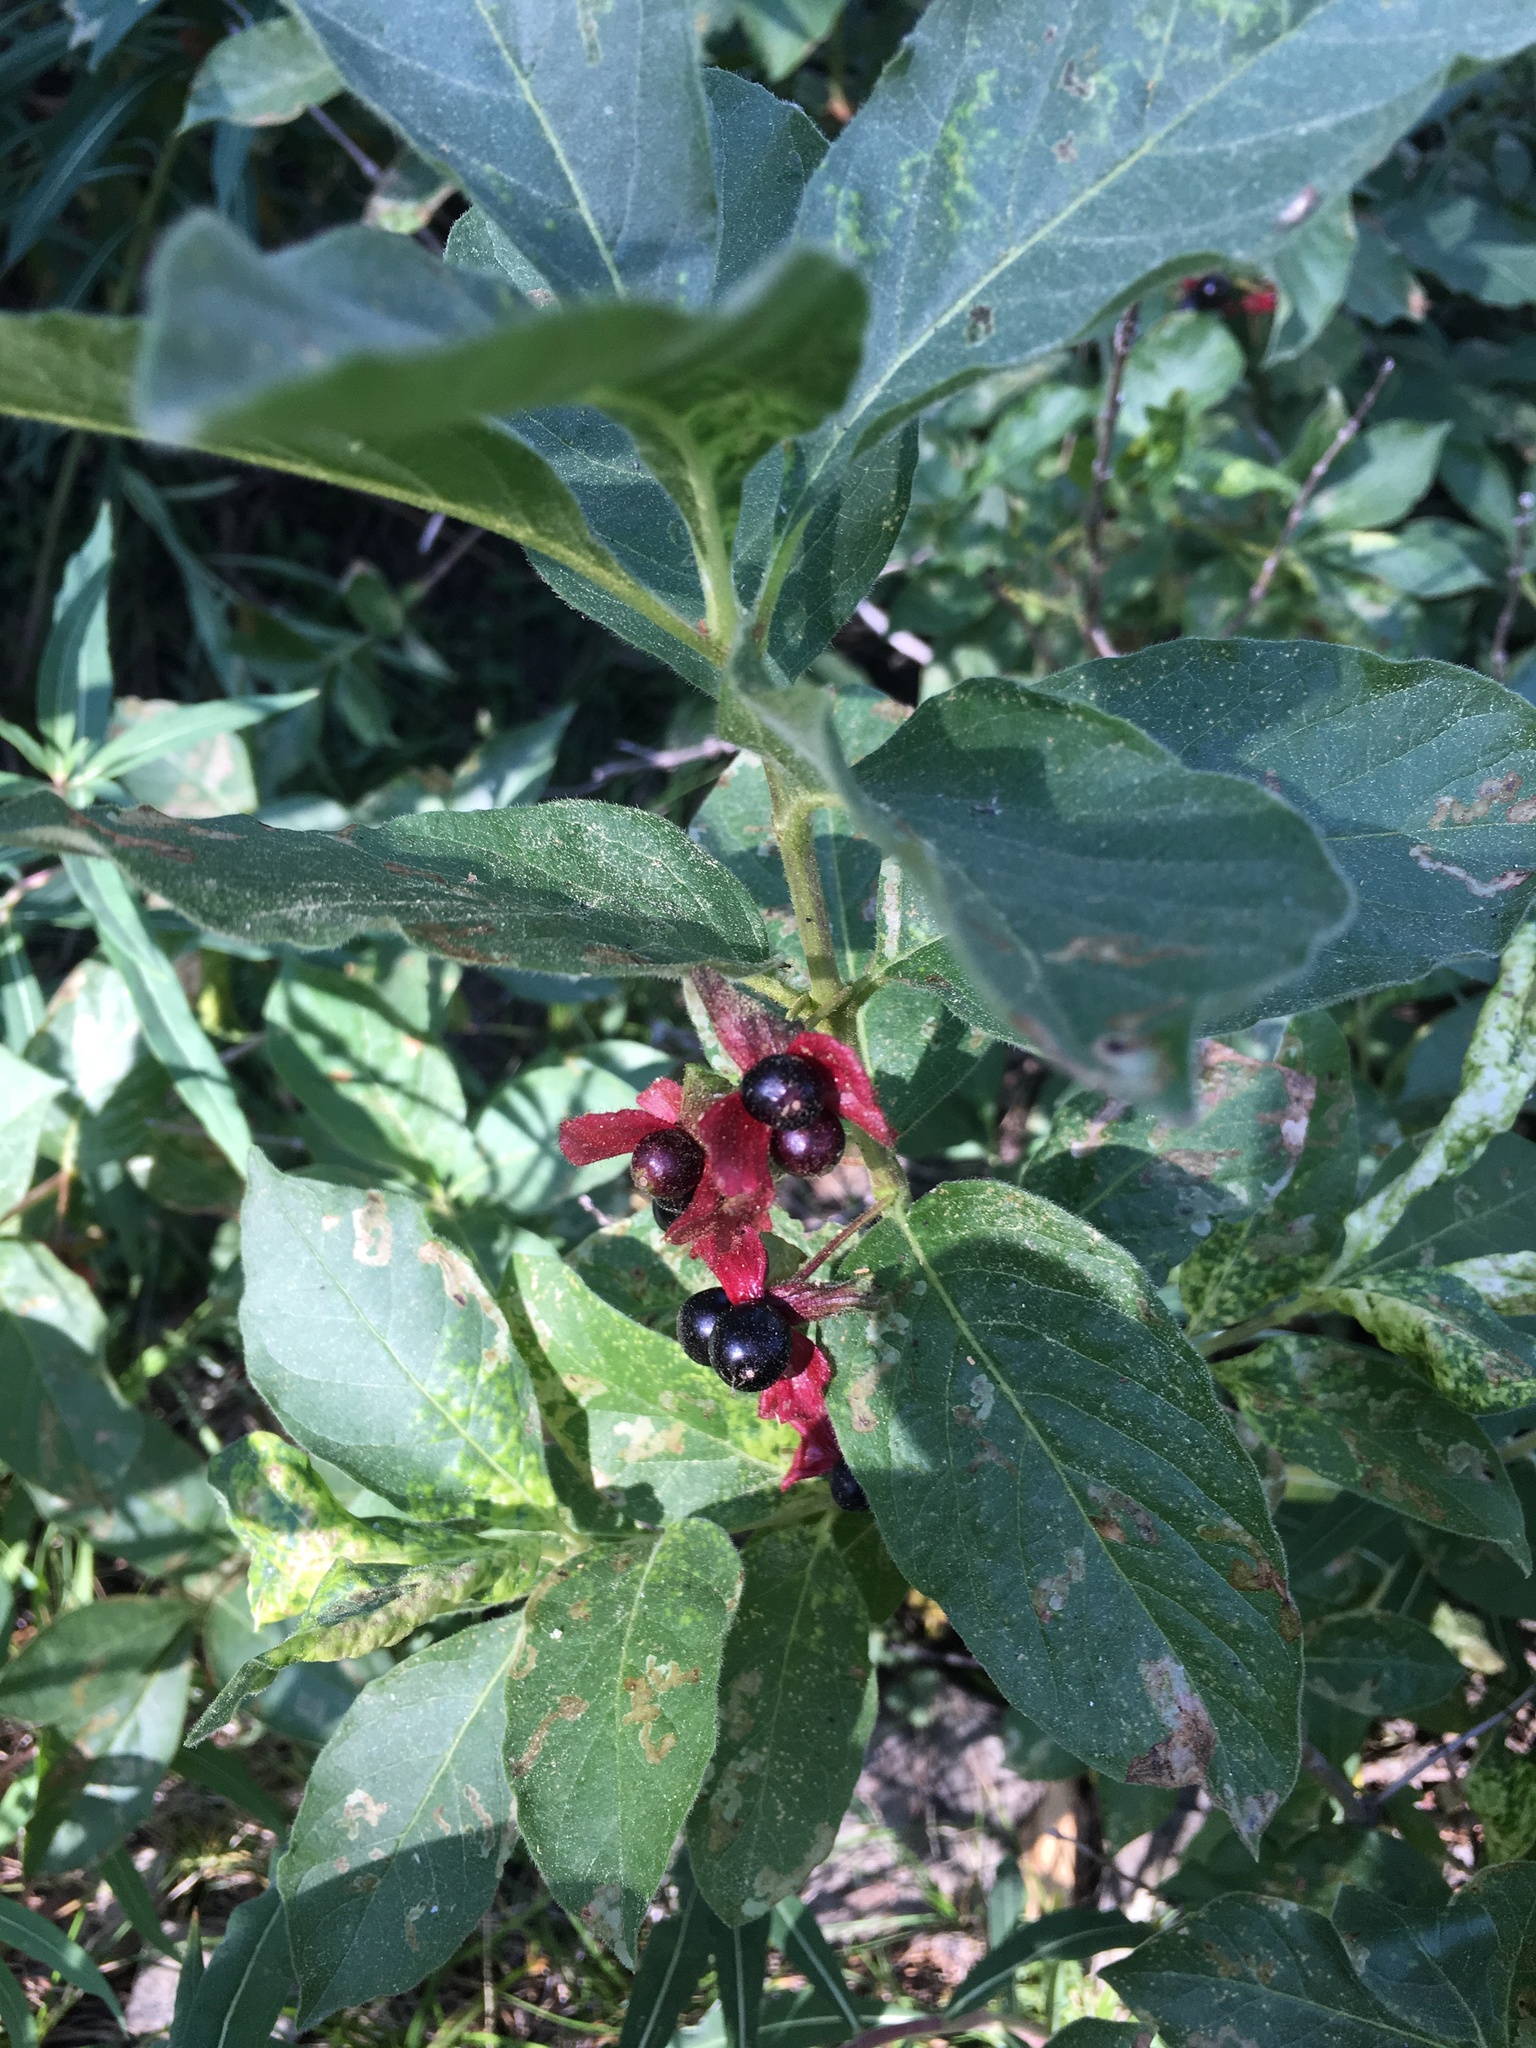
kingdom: Plantae
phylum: Tracheophyta
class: Magnoliopsida
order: Dipsacales
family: Caprifoliaceae
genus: Lonicera
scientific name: Lonicera involucrata
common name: Californian honeysuckle
